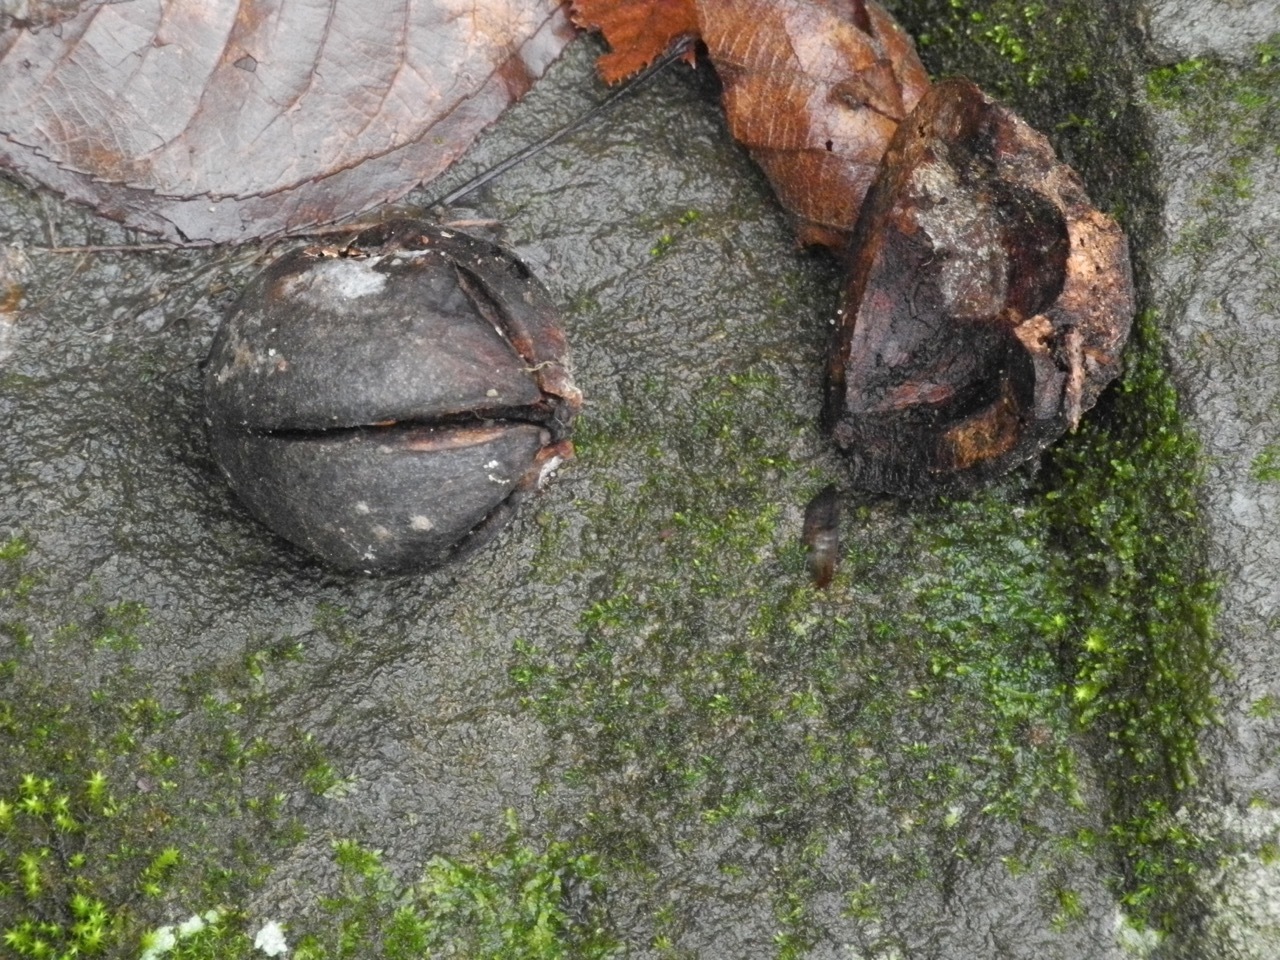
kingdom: Plantae
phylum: Tracheophyta
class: Magnoliopsida
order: Fagales
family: Juglandaceae
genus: Carya
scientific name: Carya glabra
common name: Pignut hickory
